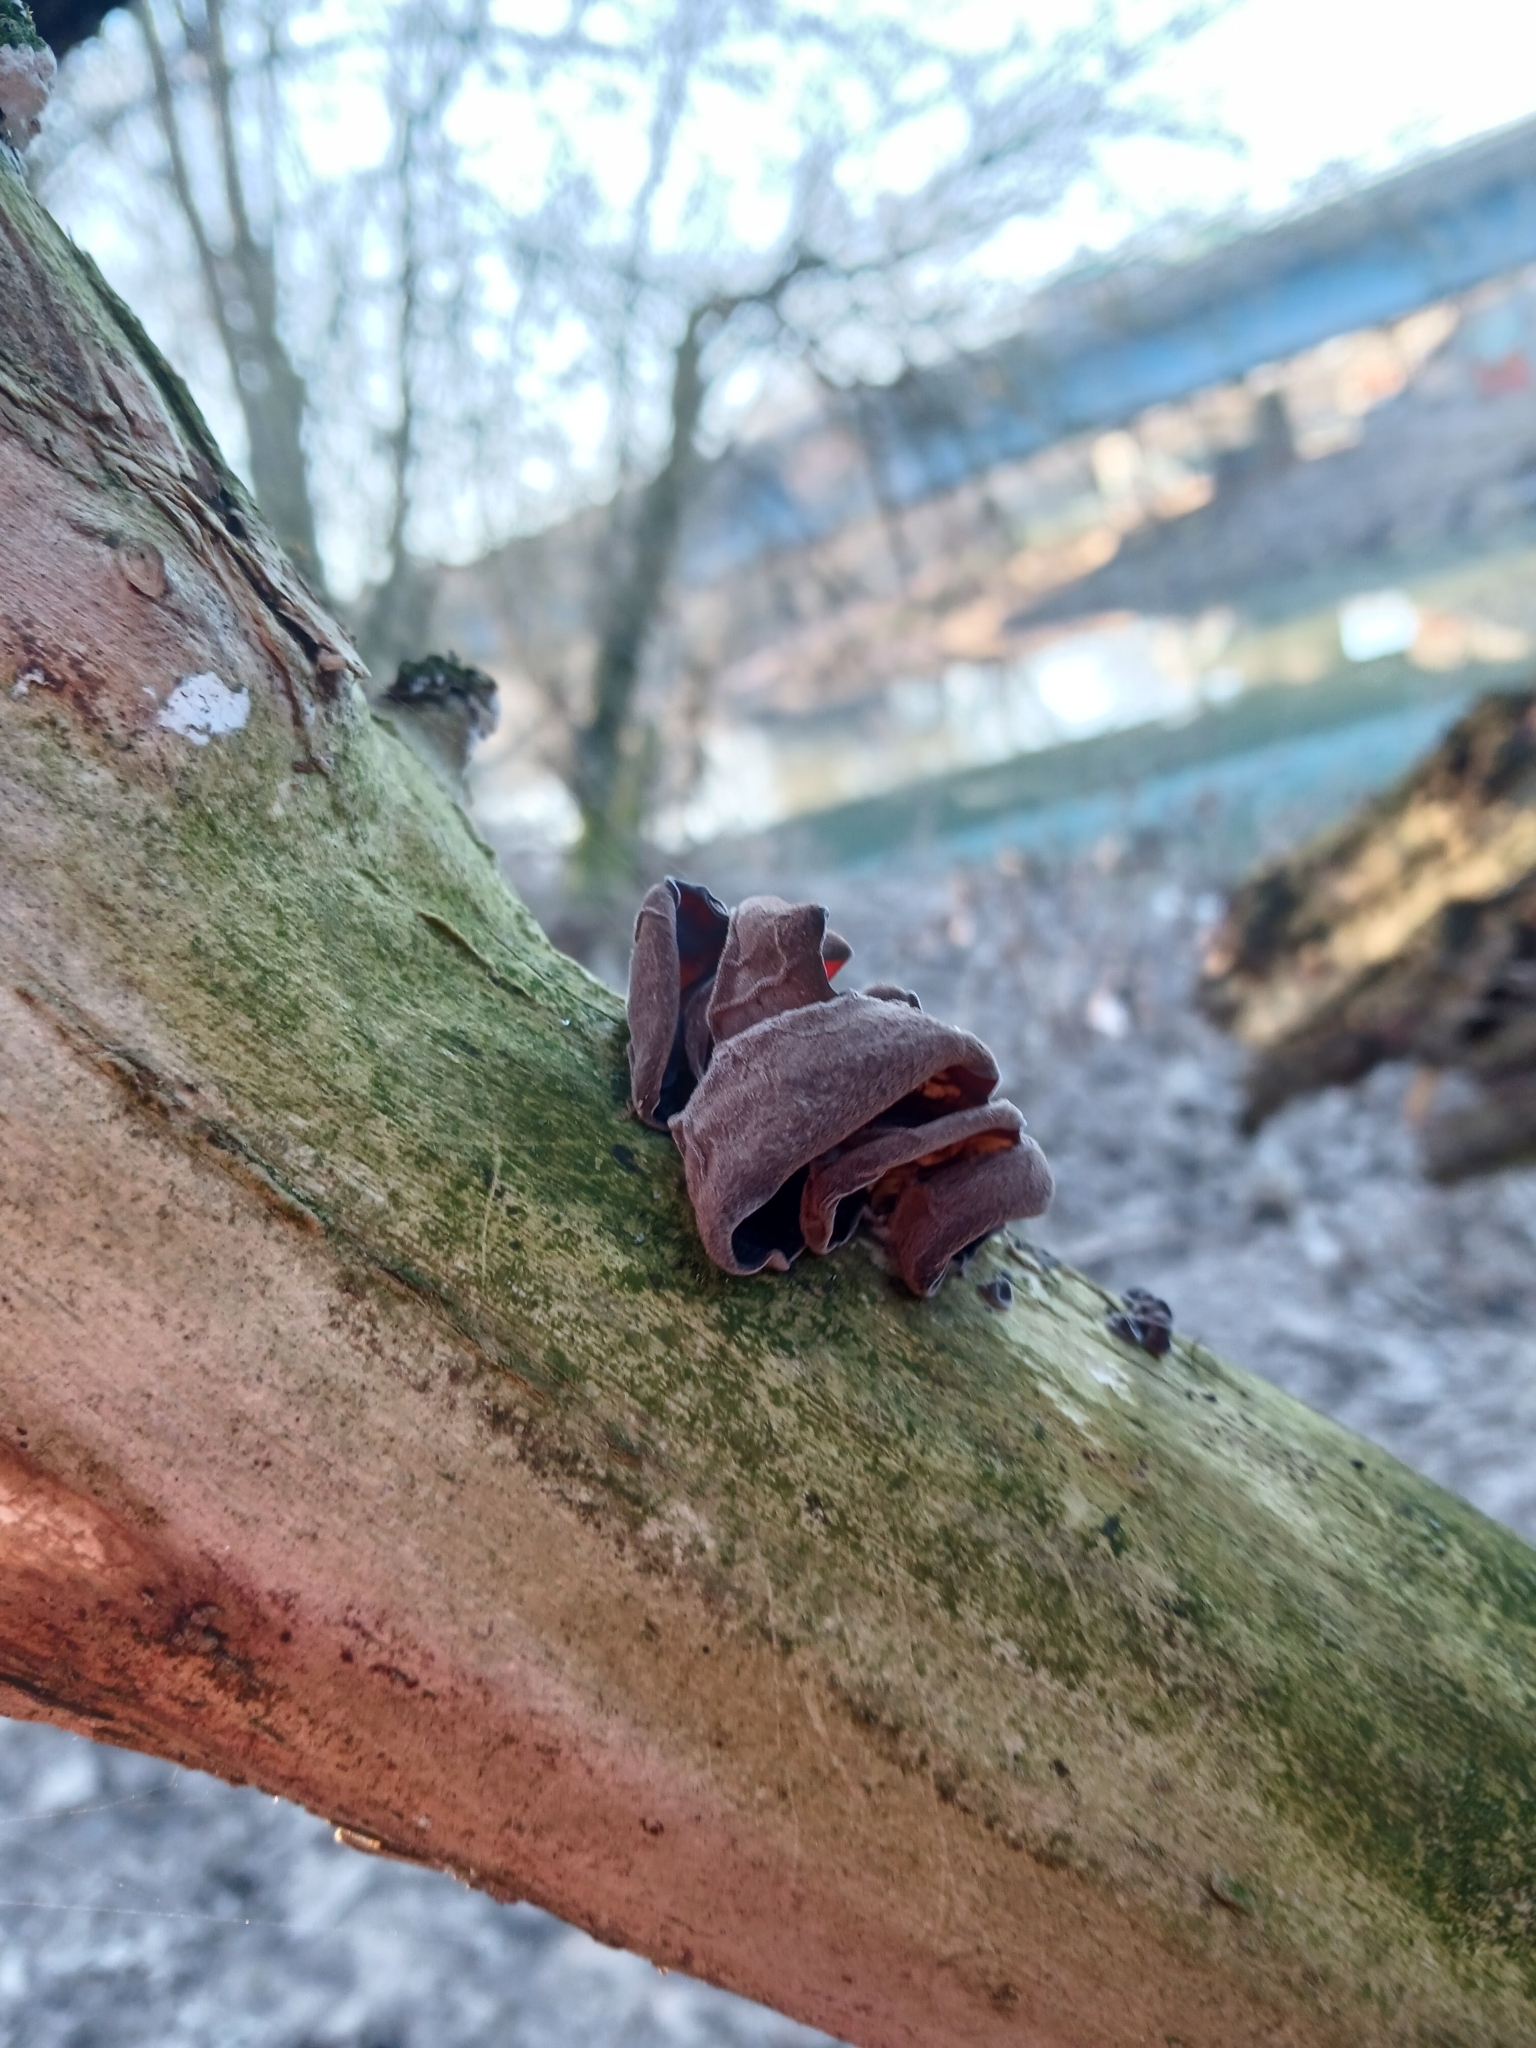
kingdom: Fungi
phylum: Basidiomycota
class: Agaricomycetes
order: Auriculariales
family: Auriculariaceae
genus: Auricularia
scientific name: Auricularia auricula-judae
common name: Jelly ear
